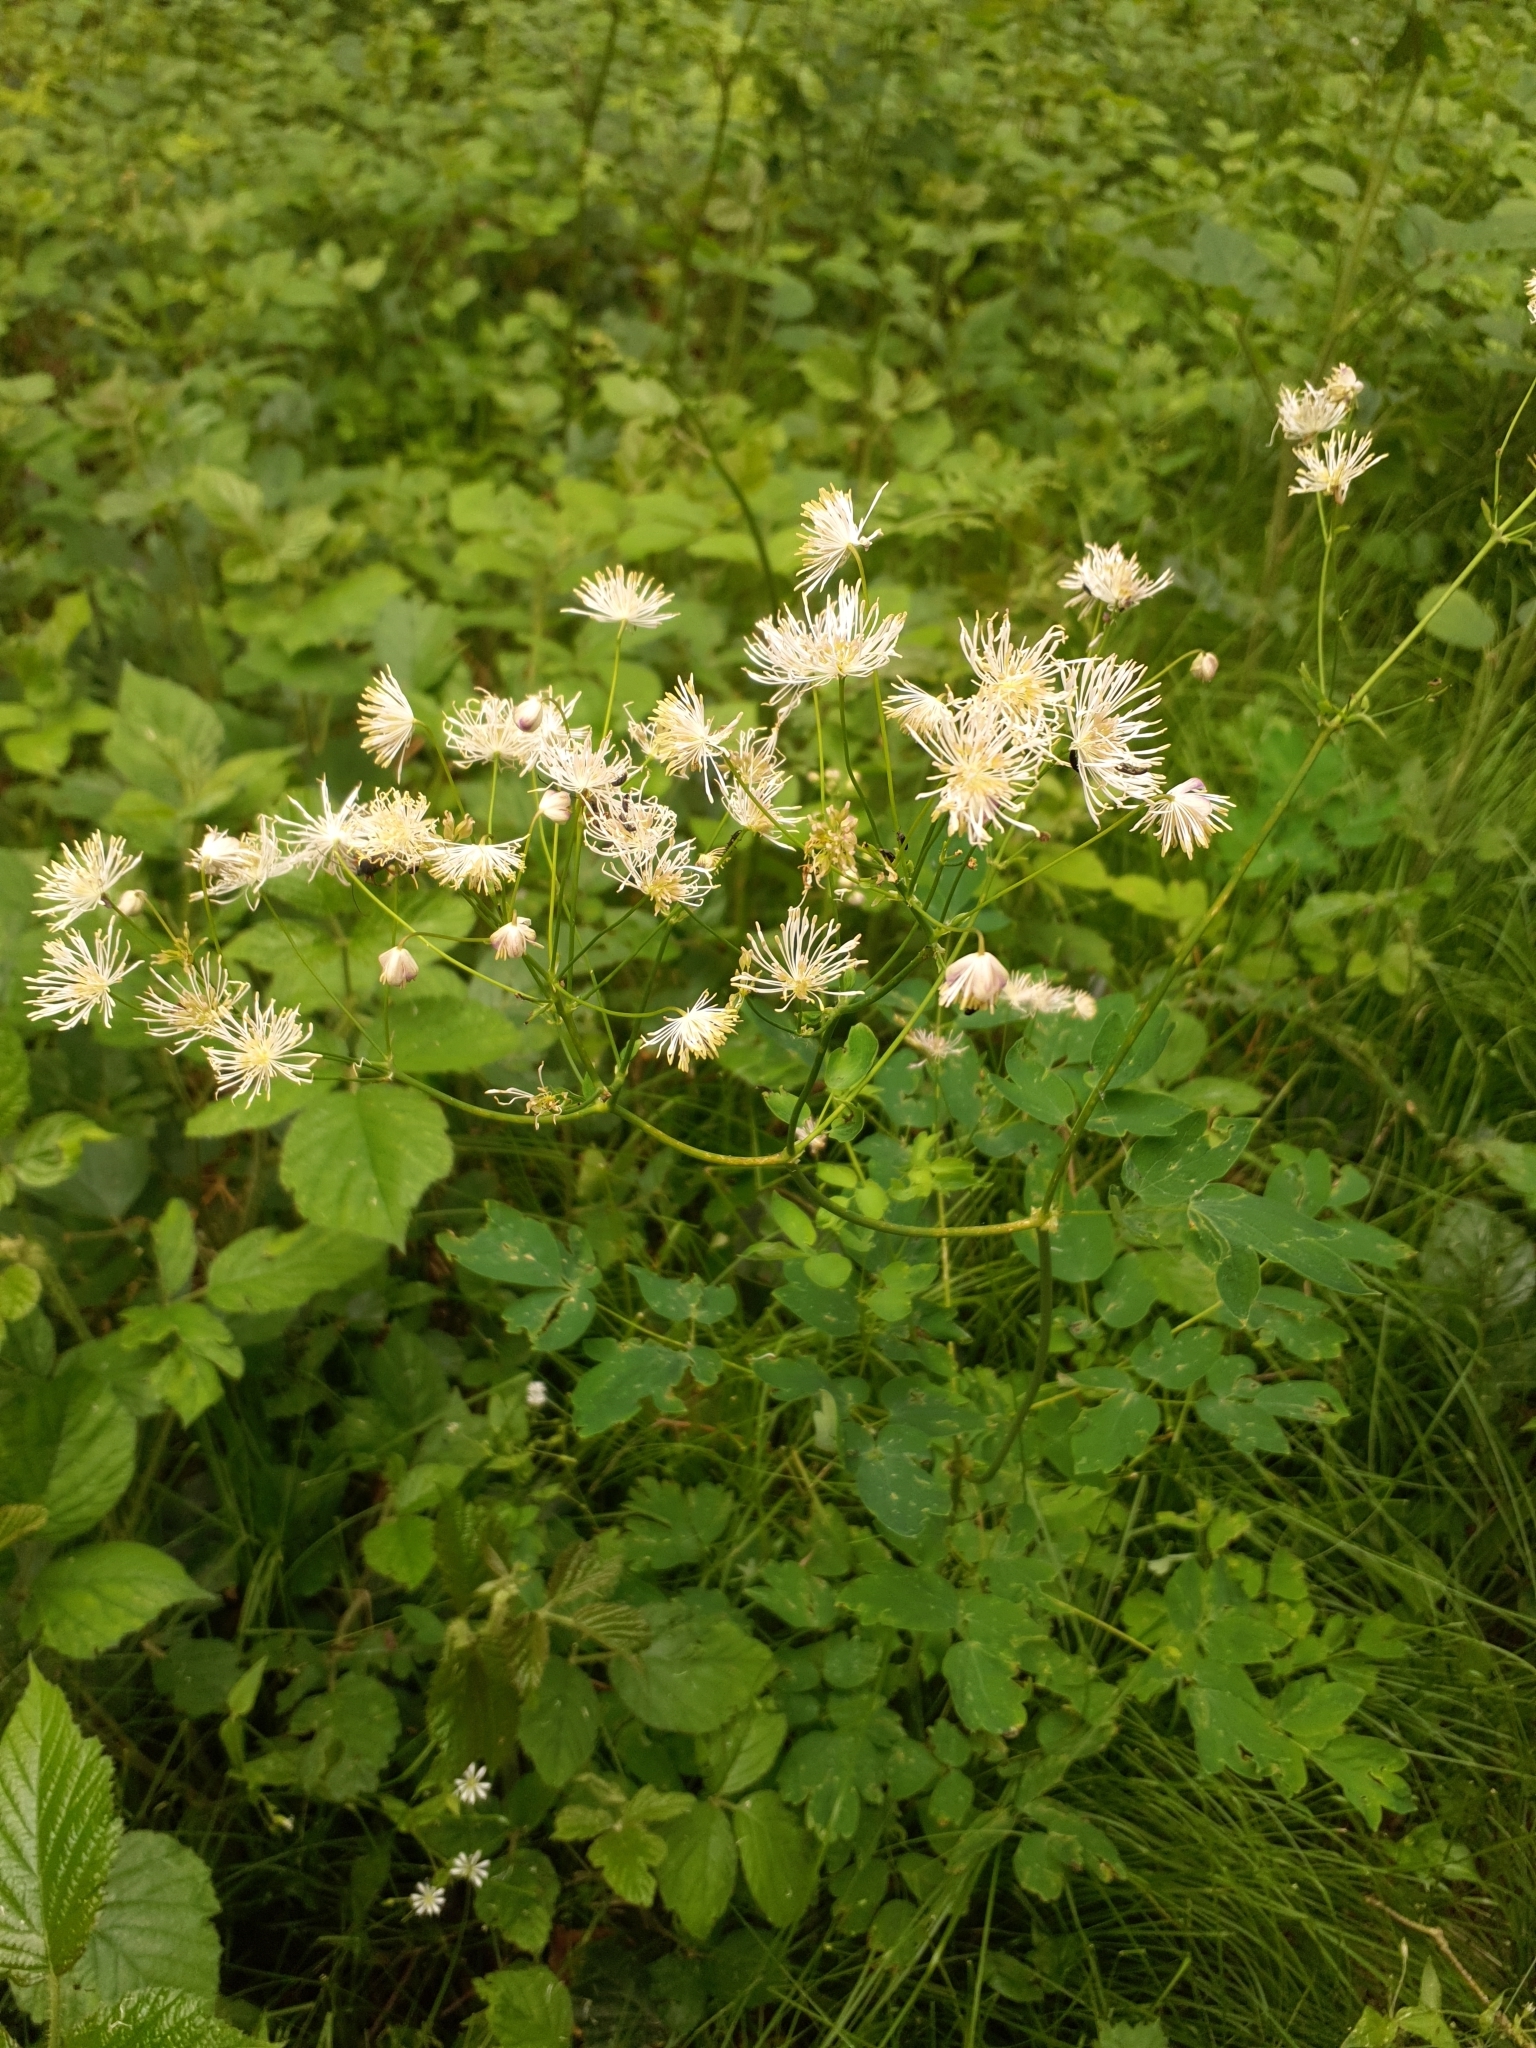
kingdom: Plantae
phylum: Tracheophyta
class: Magnoliopsida
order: Ranunculales
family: Ranunculaceae
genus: Thalictrum
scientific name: Thalictrum aquilegiifolium
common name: French meadow-rue
